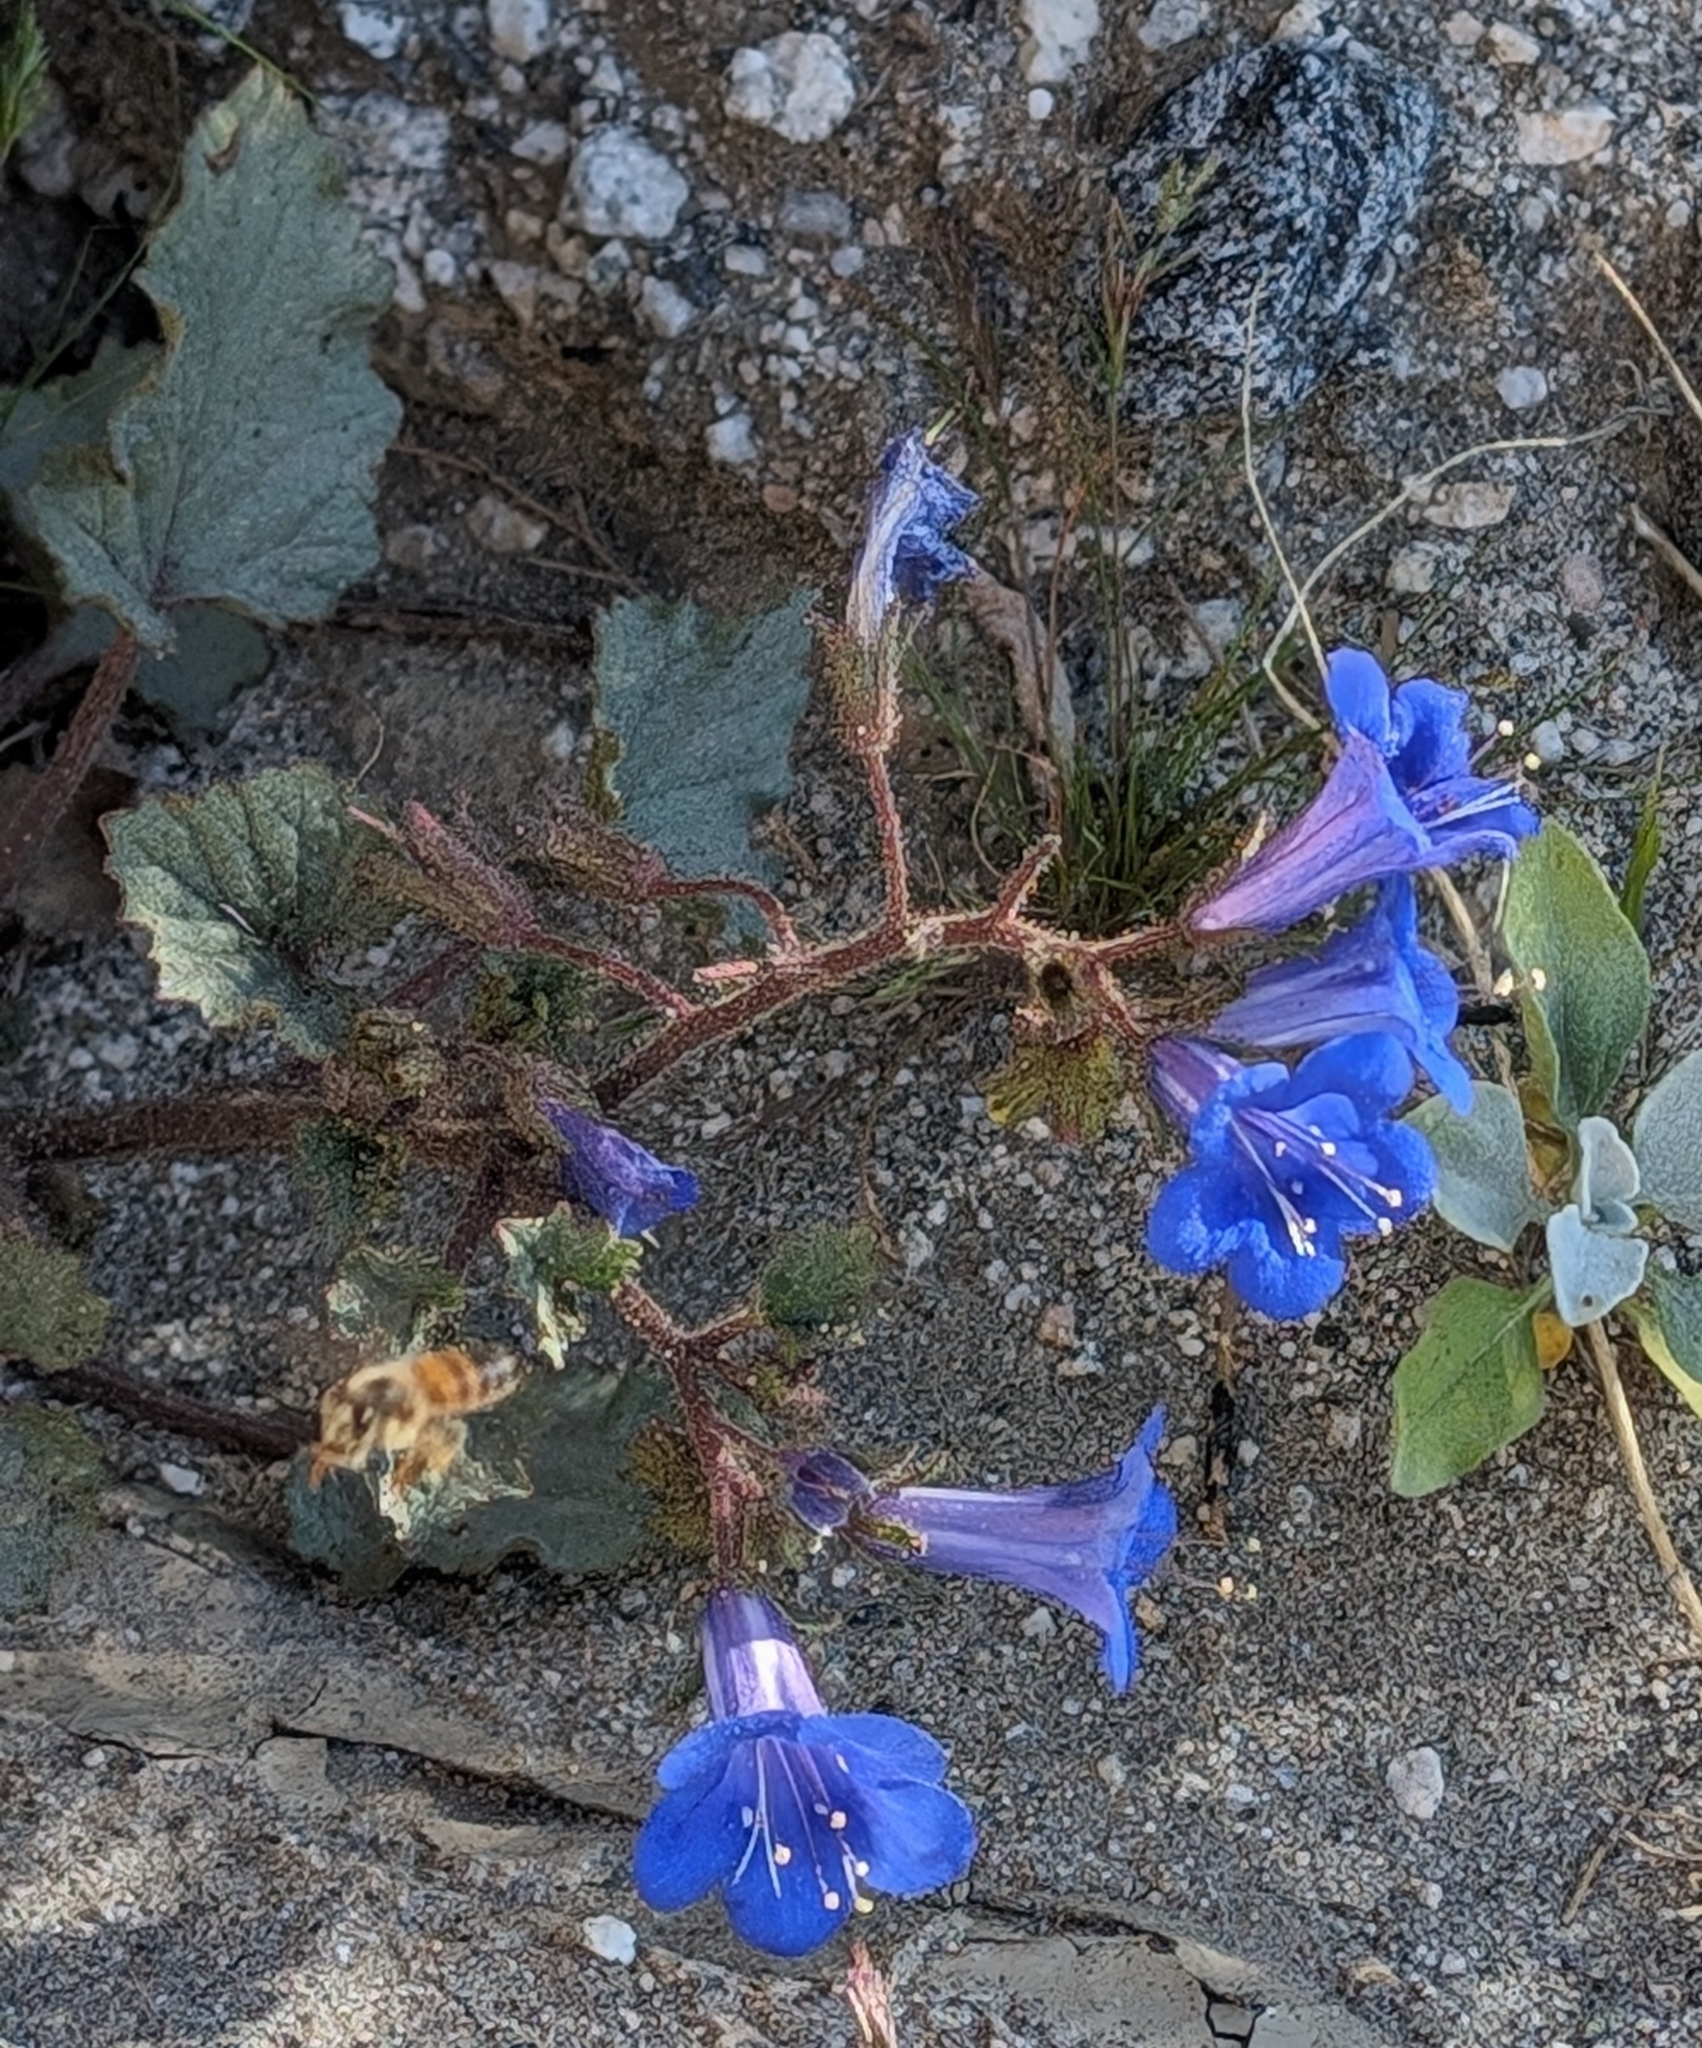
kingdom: Plantae
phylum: Tracheophyta
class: Magnoliopsida
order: Boraginales
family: Hydrophyllaceae
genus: Phacelia
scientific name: Phacelia campanularia
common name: California bluebell
